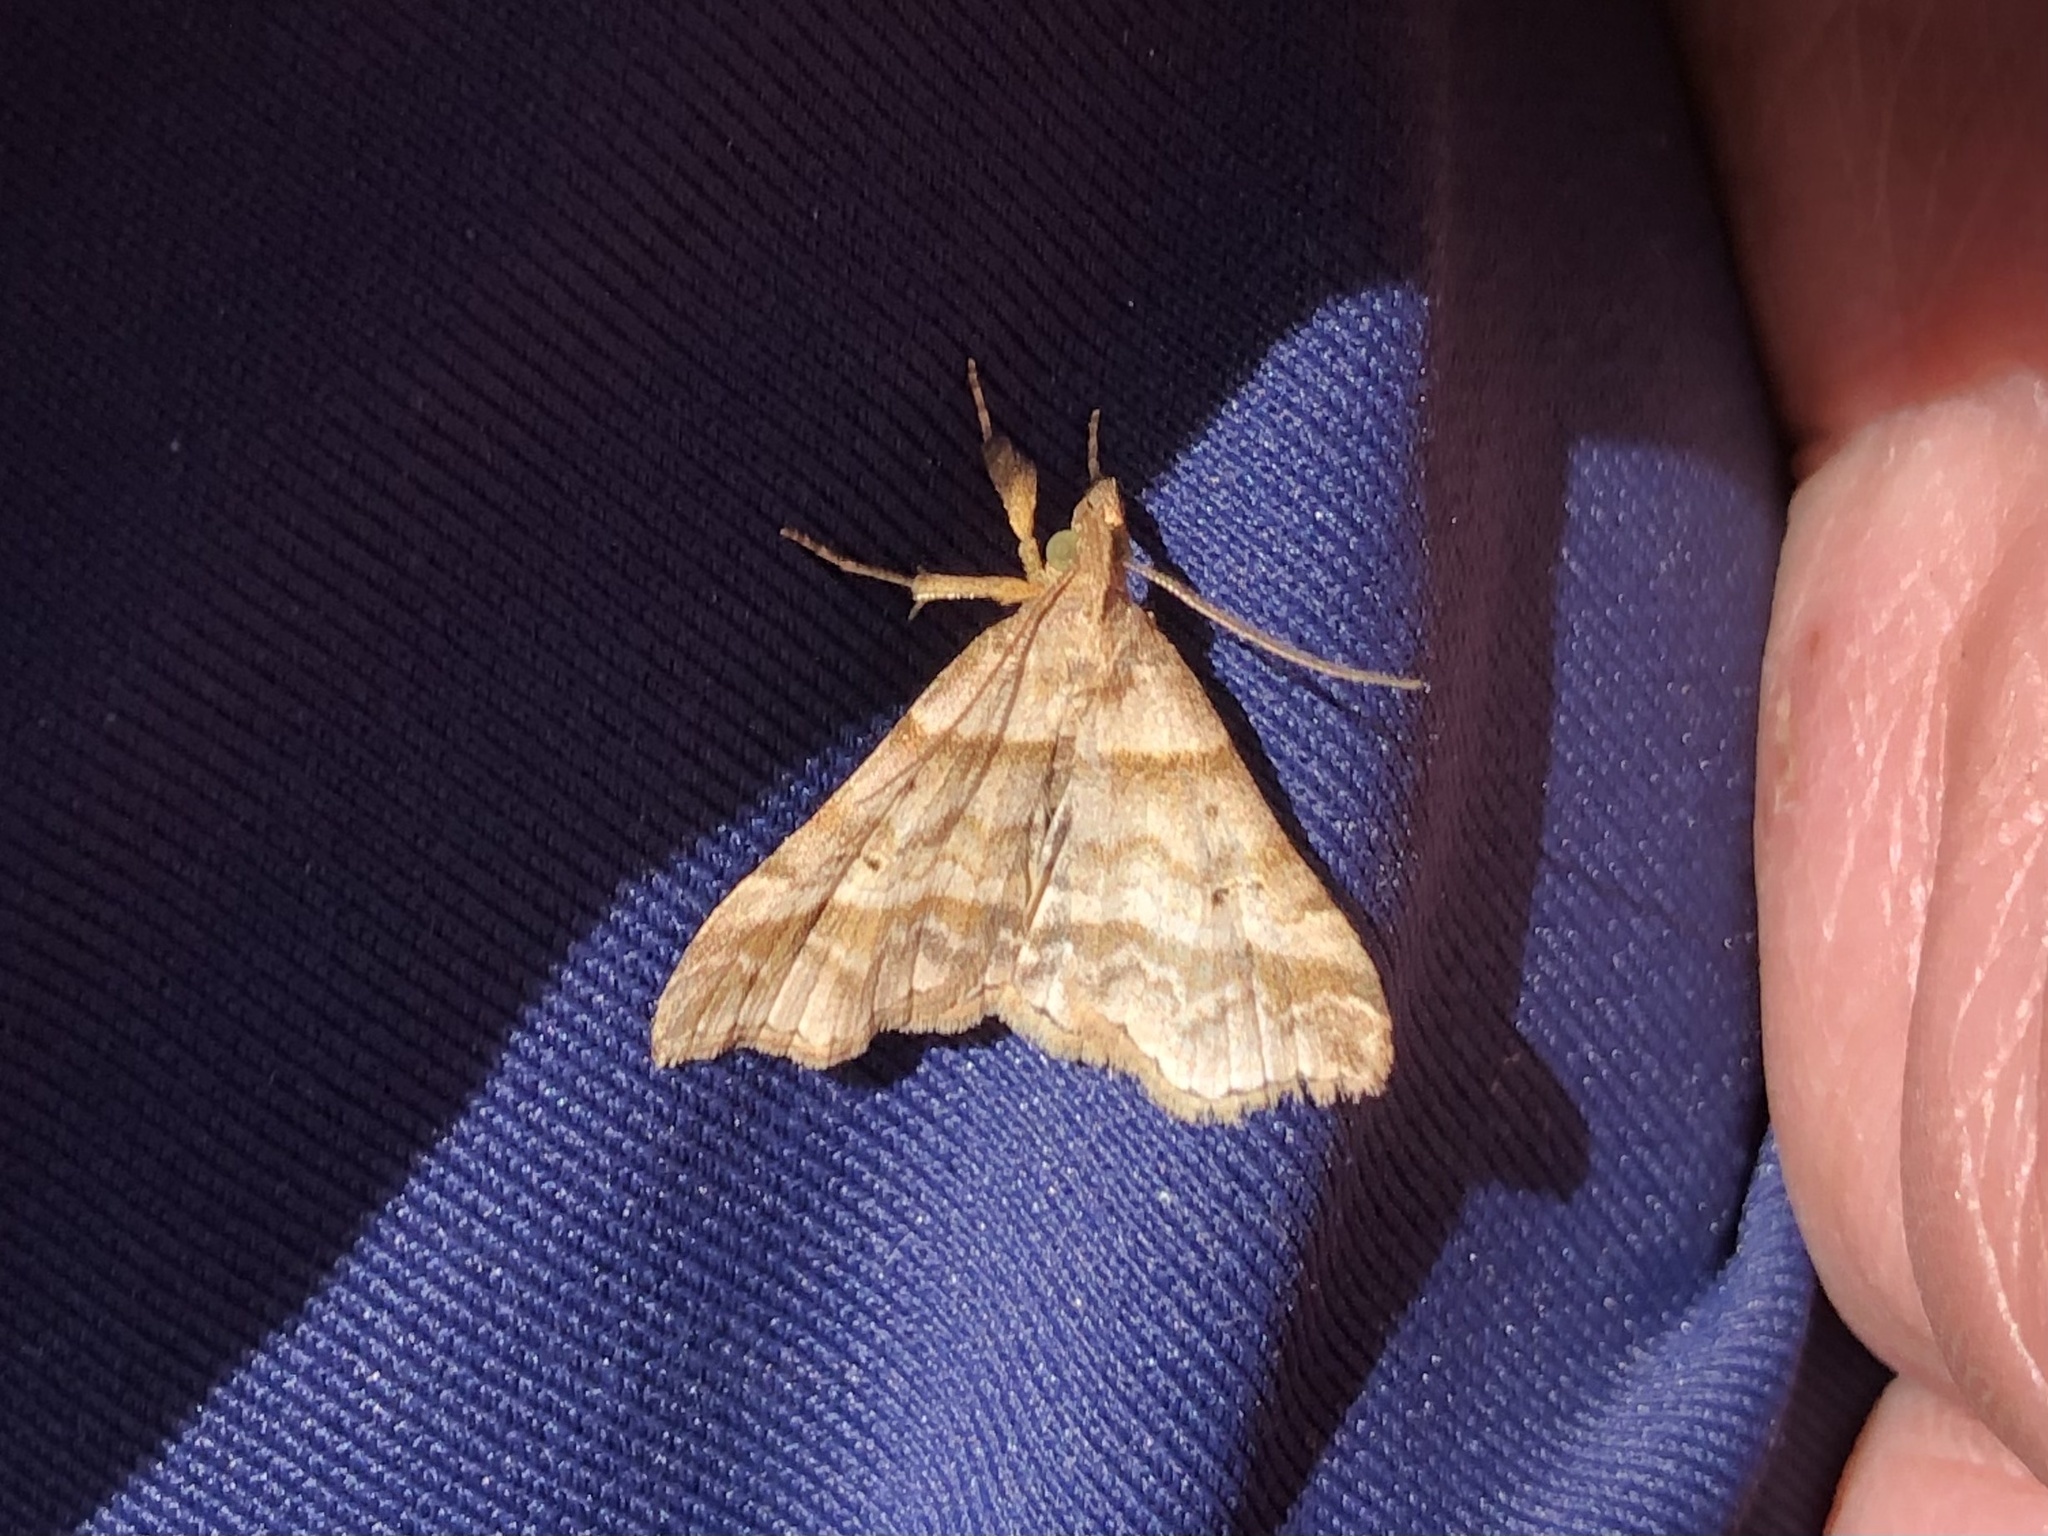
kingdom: Animalia
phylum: Arthropoda
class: Insecta
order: Lepidoptera
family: Erebidae
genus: Phaeolita
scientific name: Phaeolita pyramusalis
